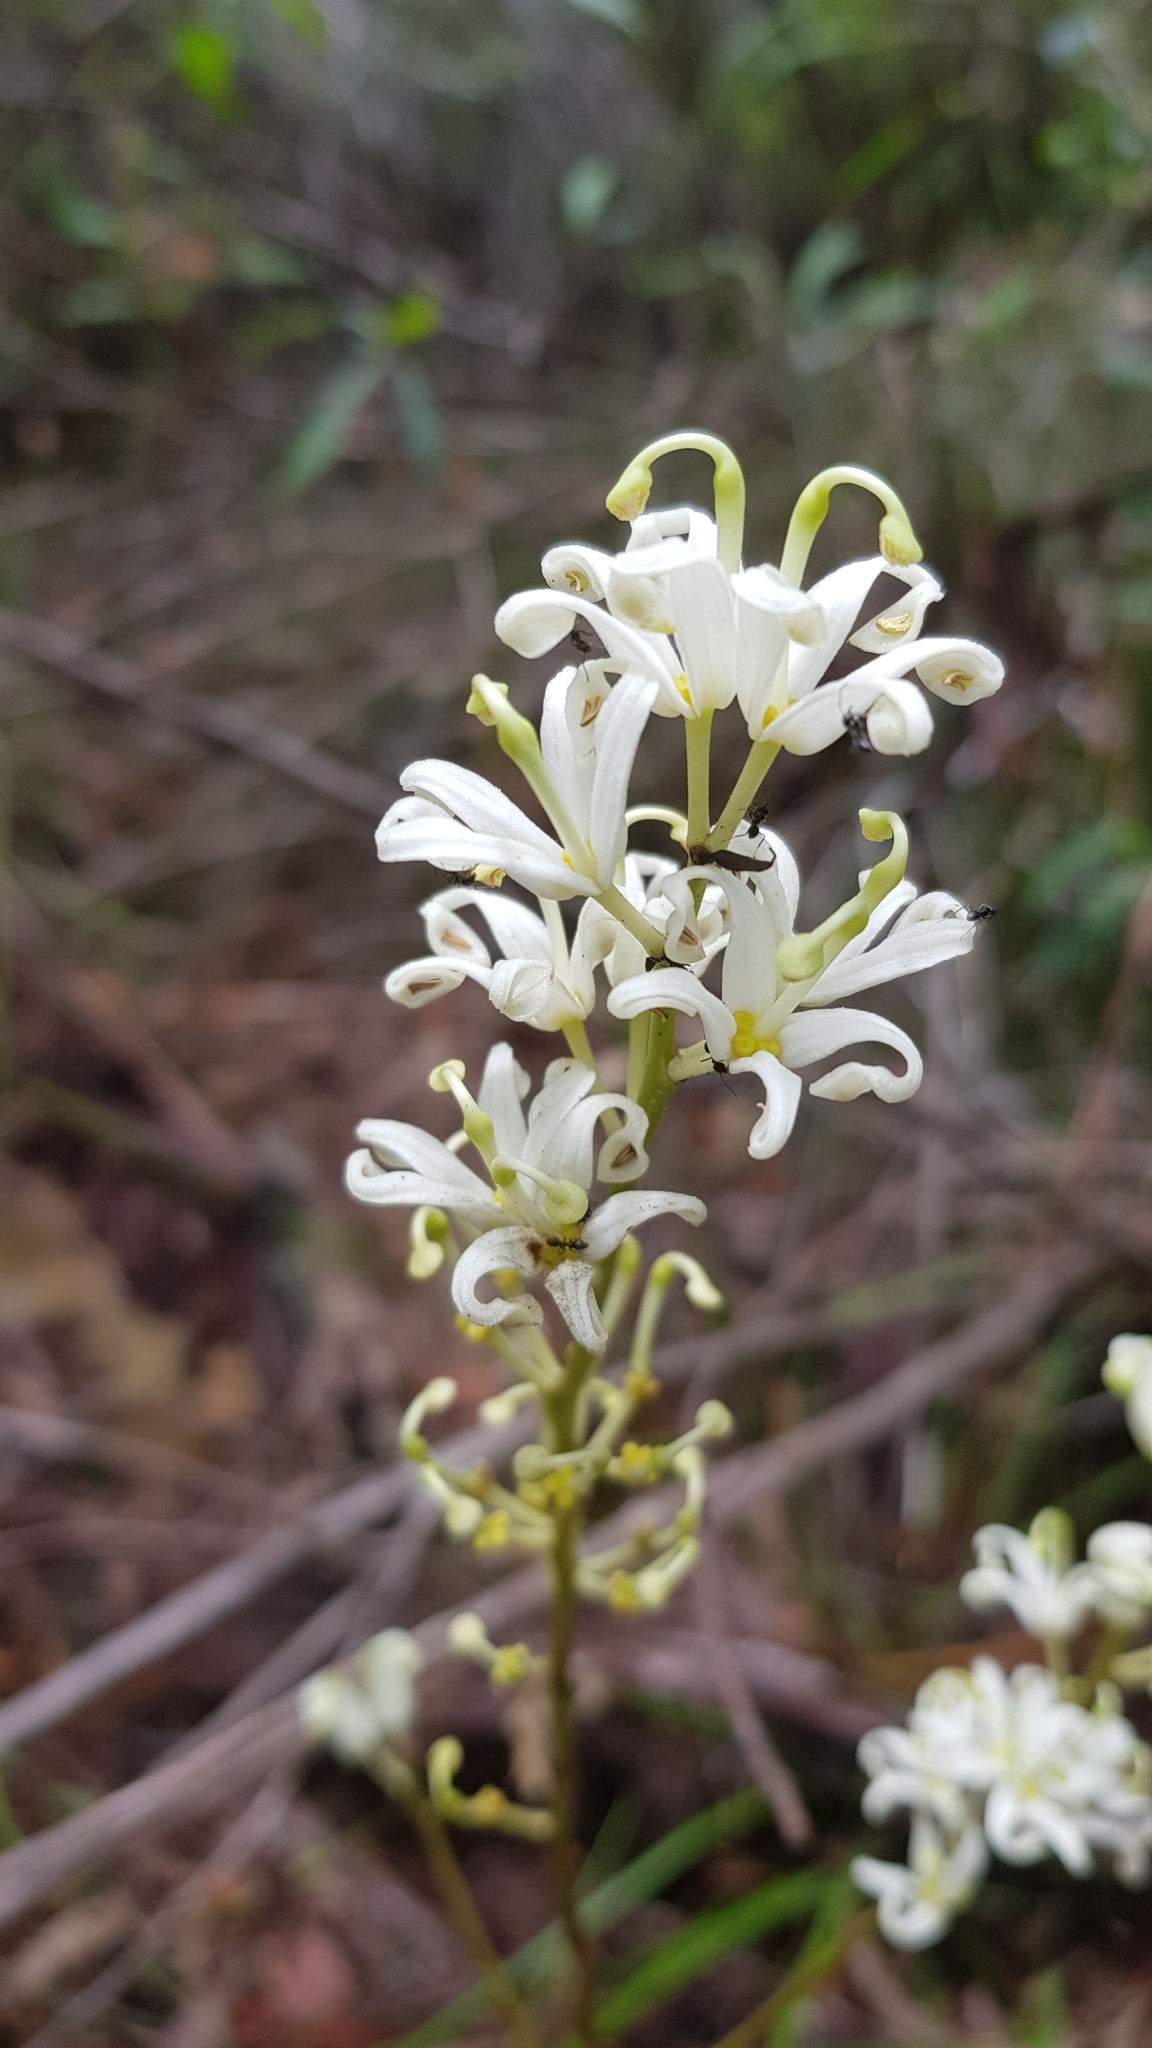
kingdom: Plantae
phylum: Tracheophyta
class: Magnoliopsida
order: Proteales
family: Proteaceae
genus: Lomatia
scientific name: Lomatia silaifolia
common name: Crinklebush
